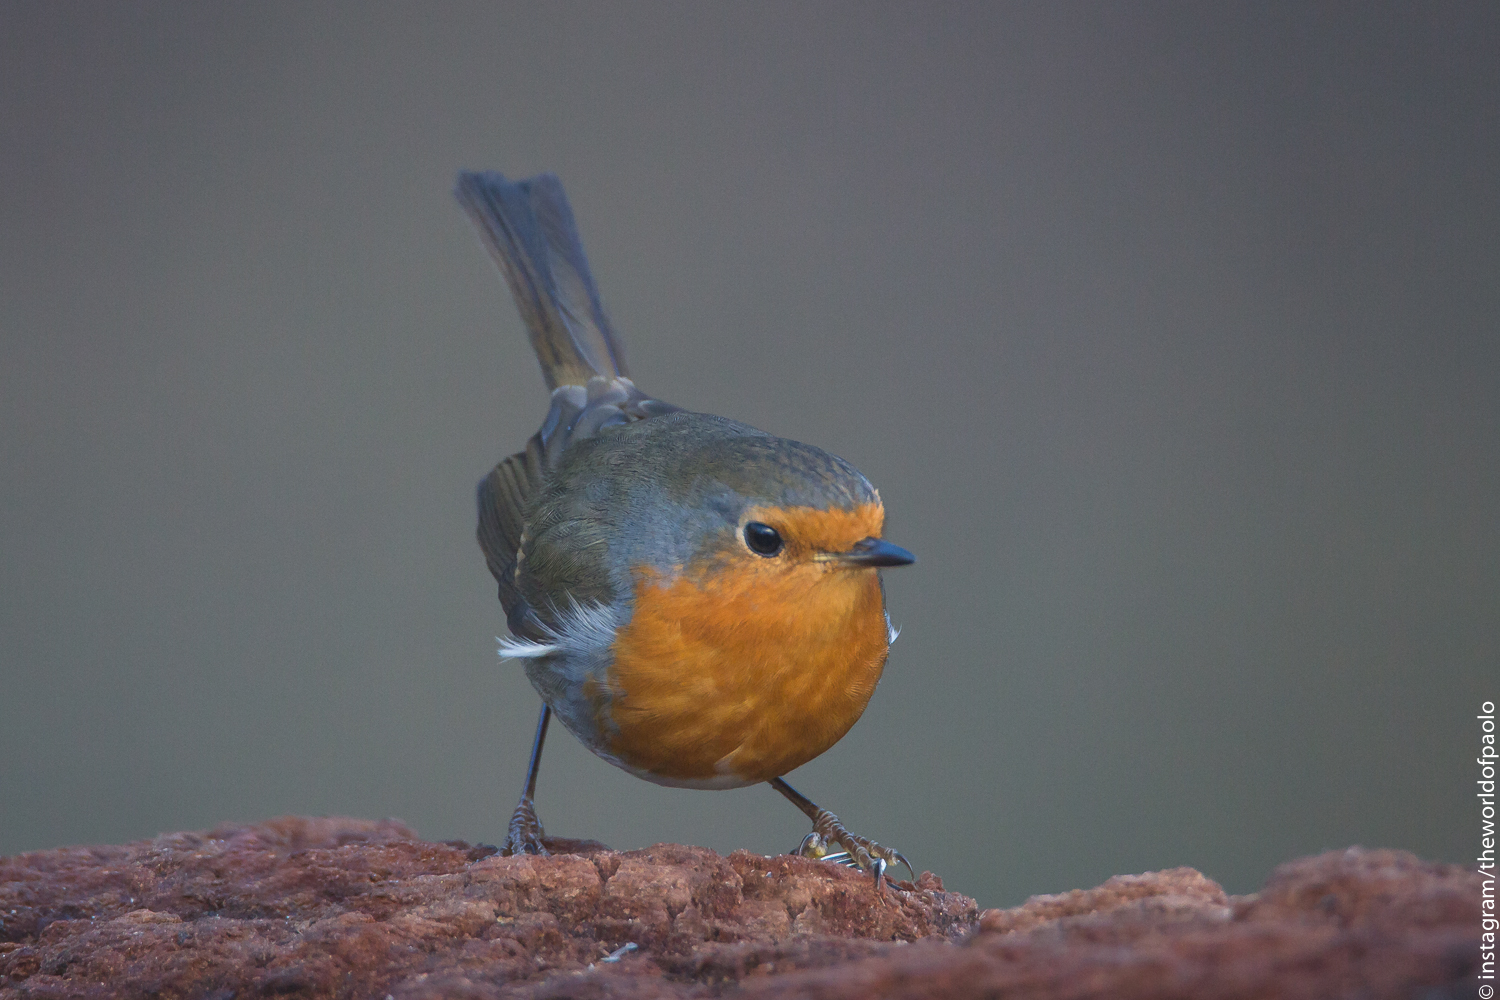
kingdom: Animalia
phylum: Chordata
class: Aves
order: Passeriformes
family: Muscicapidae
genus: Erithacus
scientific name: Erithacus rubecula
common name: European robin
